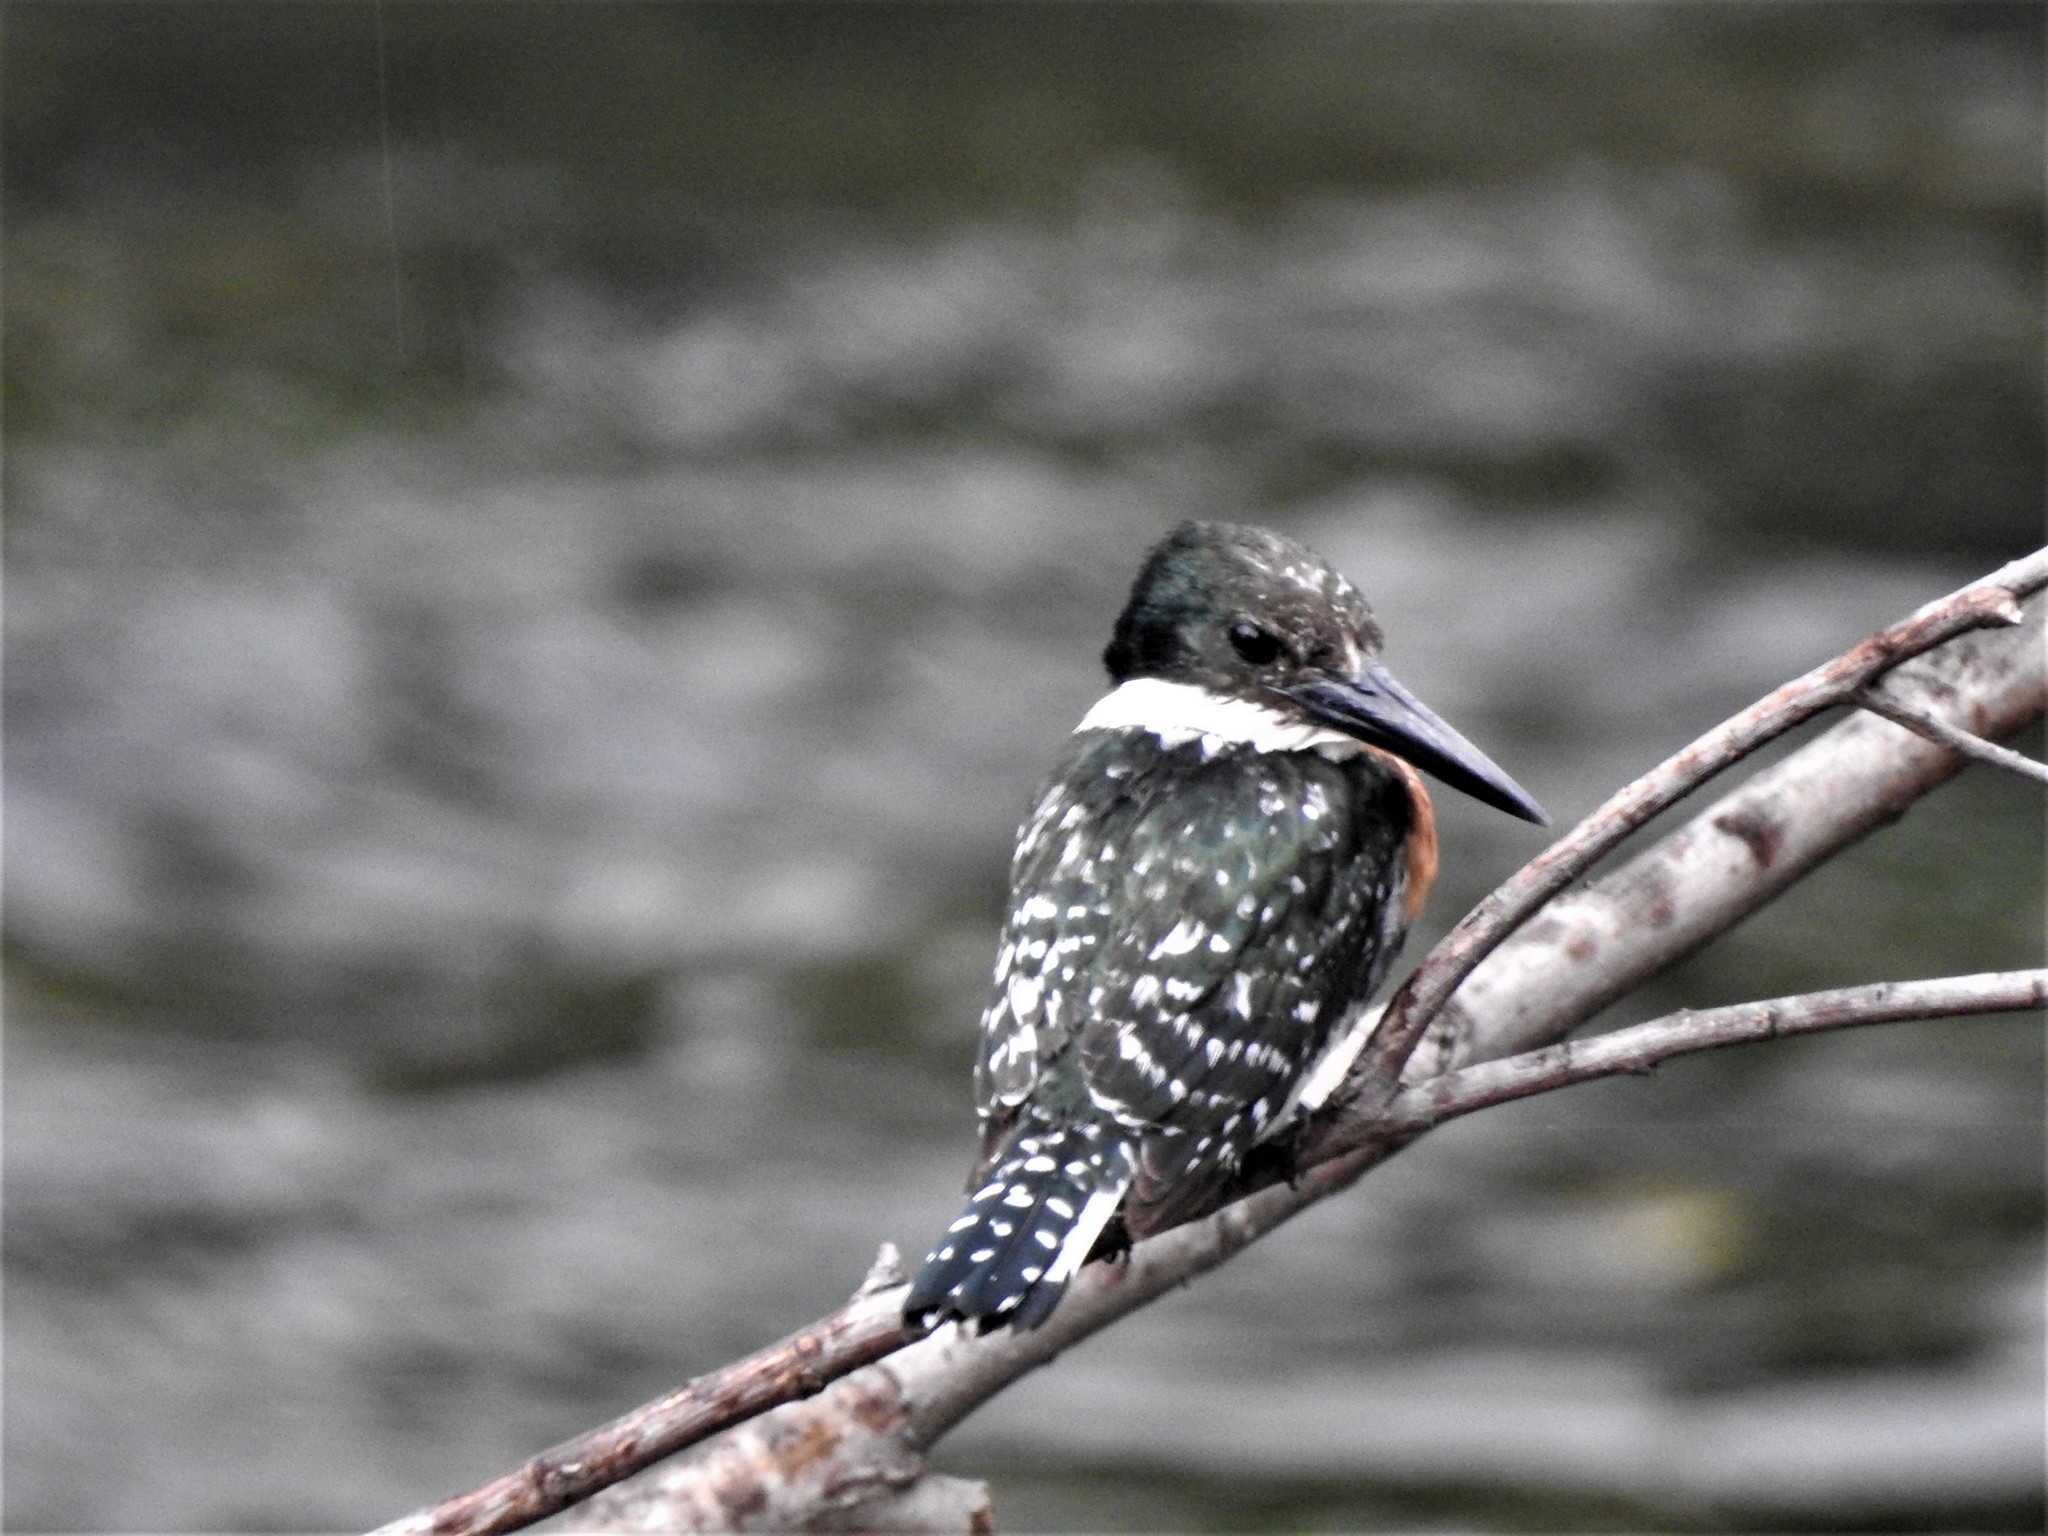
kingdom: Animalia
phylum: Chordata
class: Aves
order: Coraciiformes
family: Alcedinidae
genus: Chloroceryle
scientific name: Chloroceryle americana
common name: Green kingfisher
